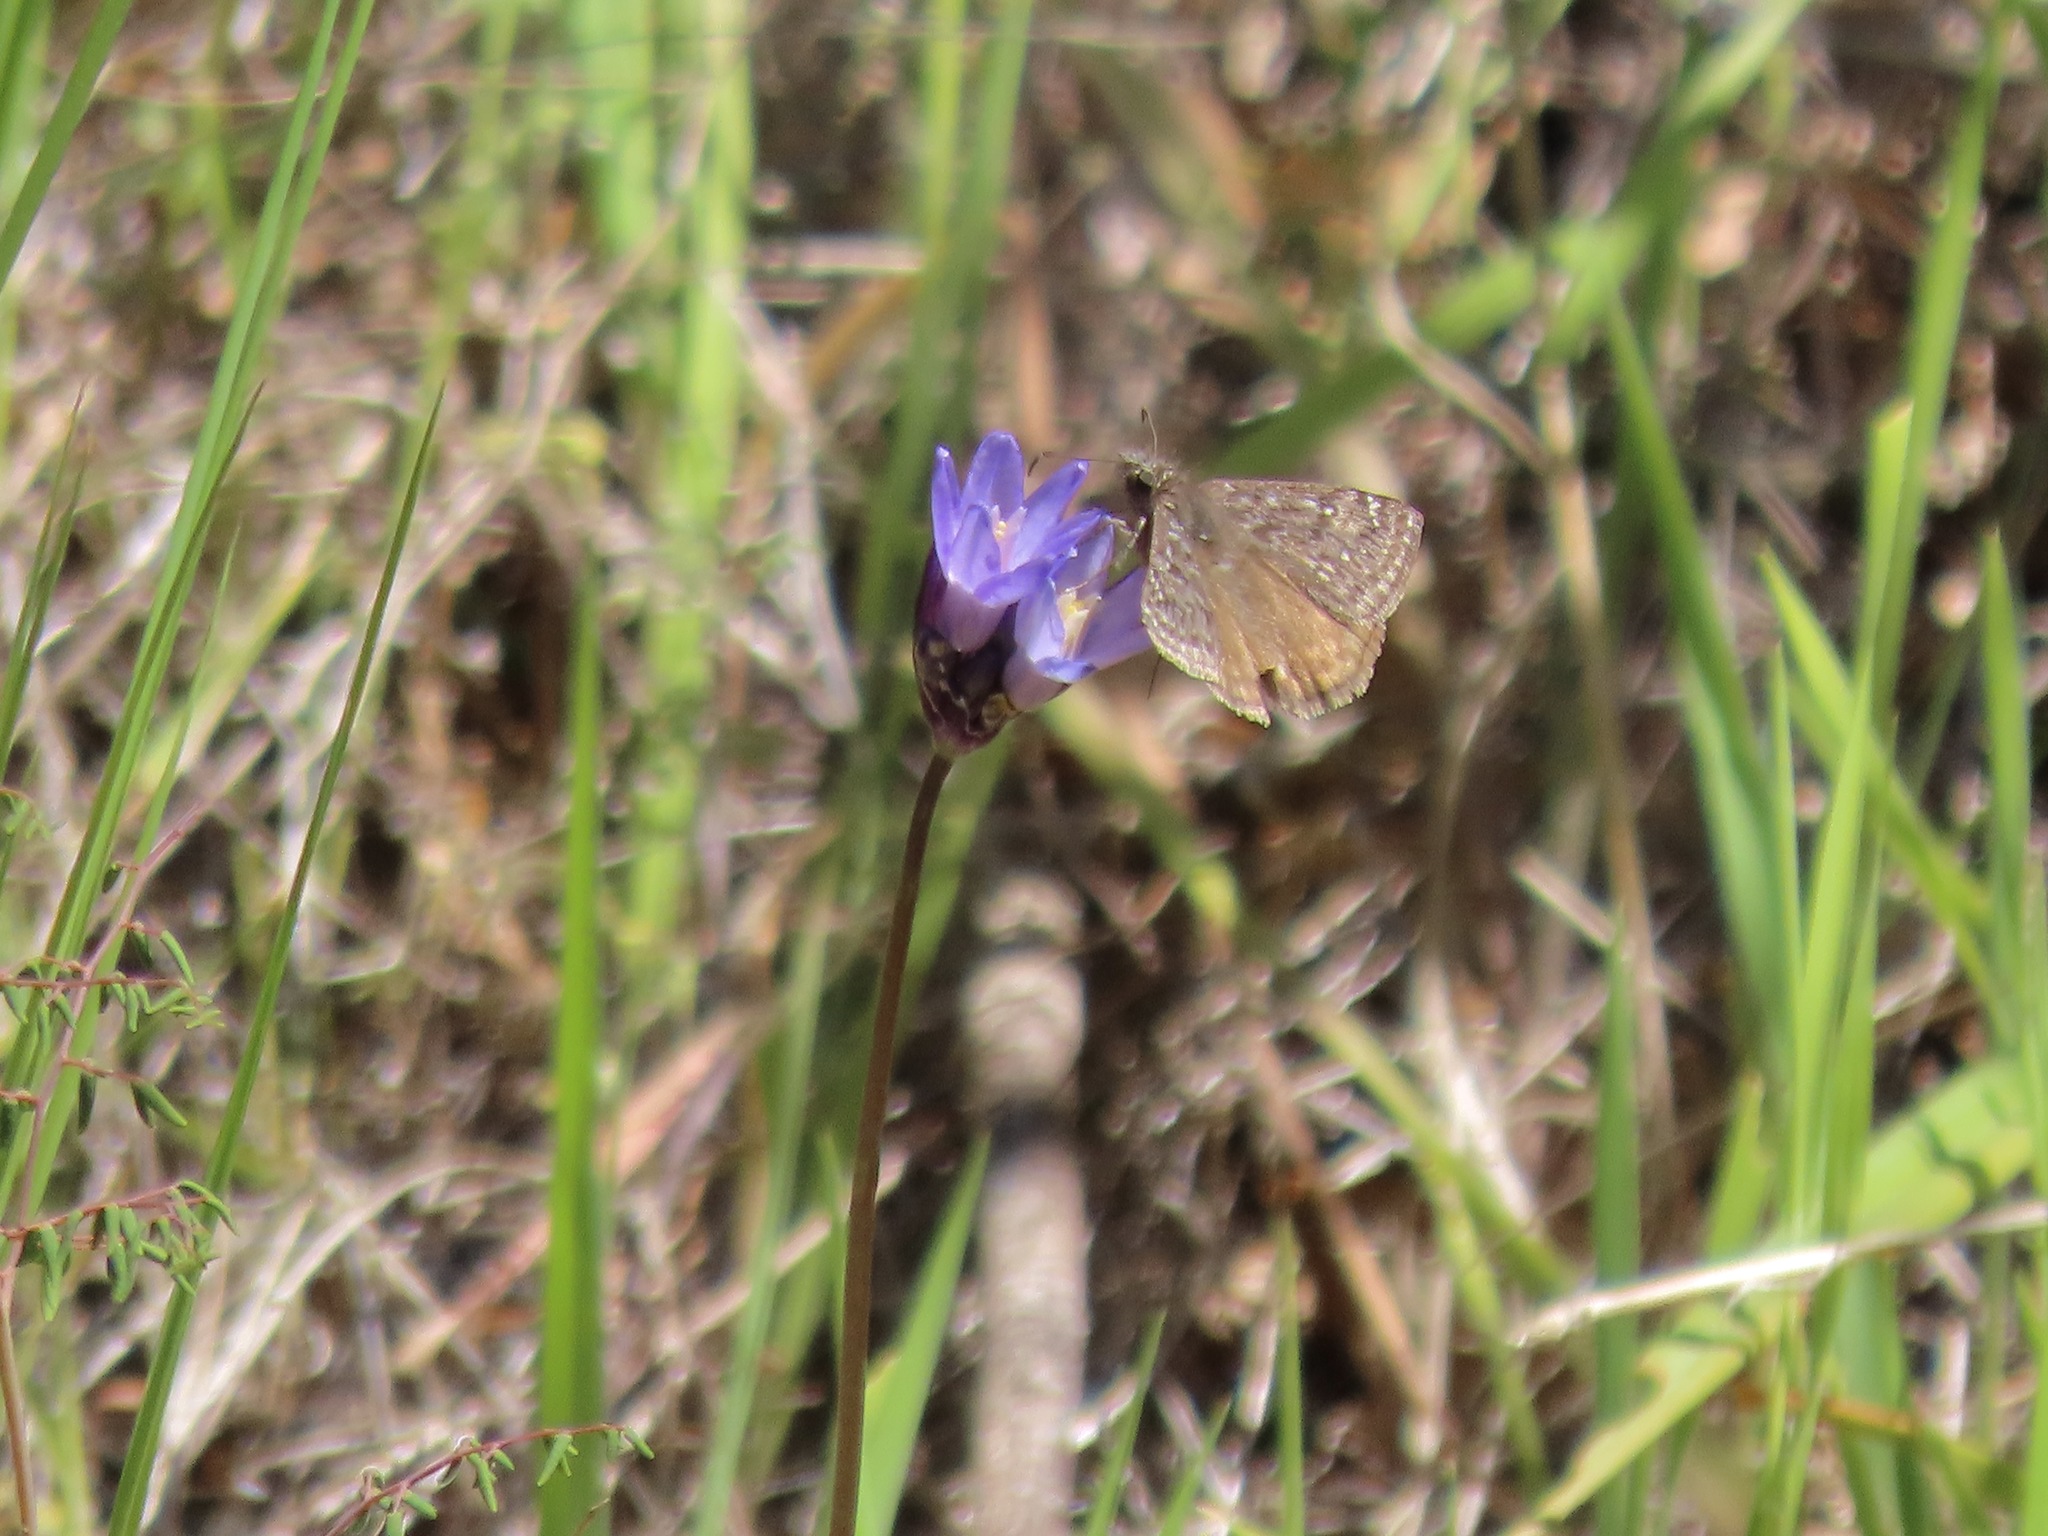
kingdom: Animalia
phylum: Arthropoda
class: Insecta
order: Lepidoptera
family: Hesperiidae
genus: Erynnis
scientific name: Erynnis propertius
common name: Propertius duskywing
